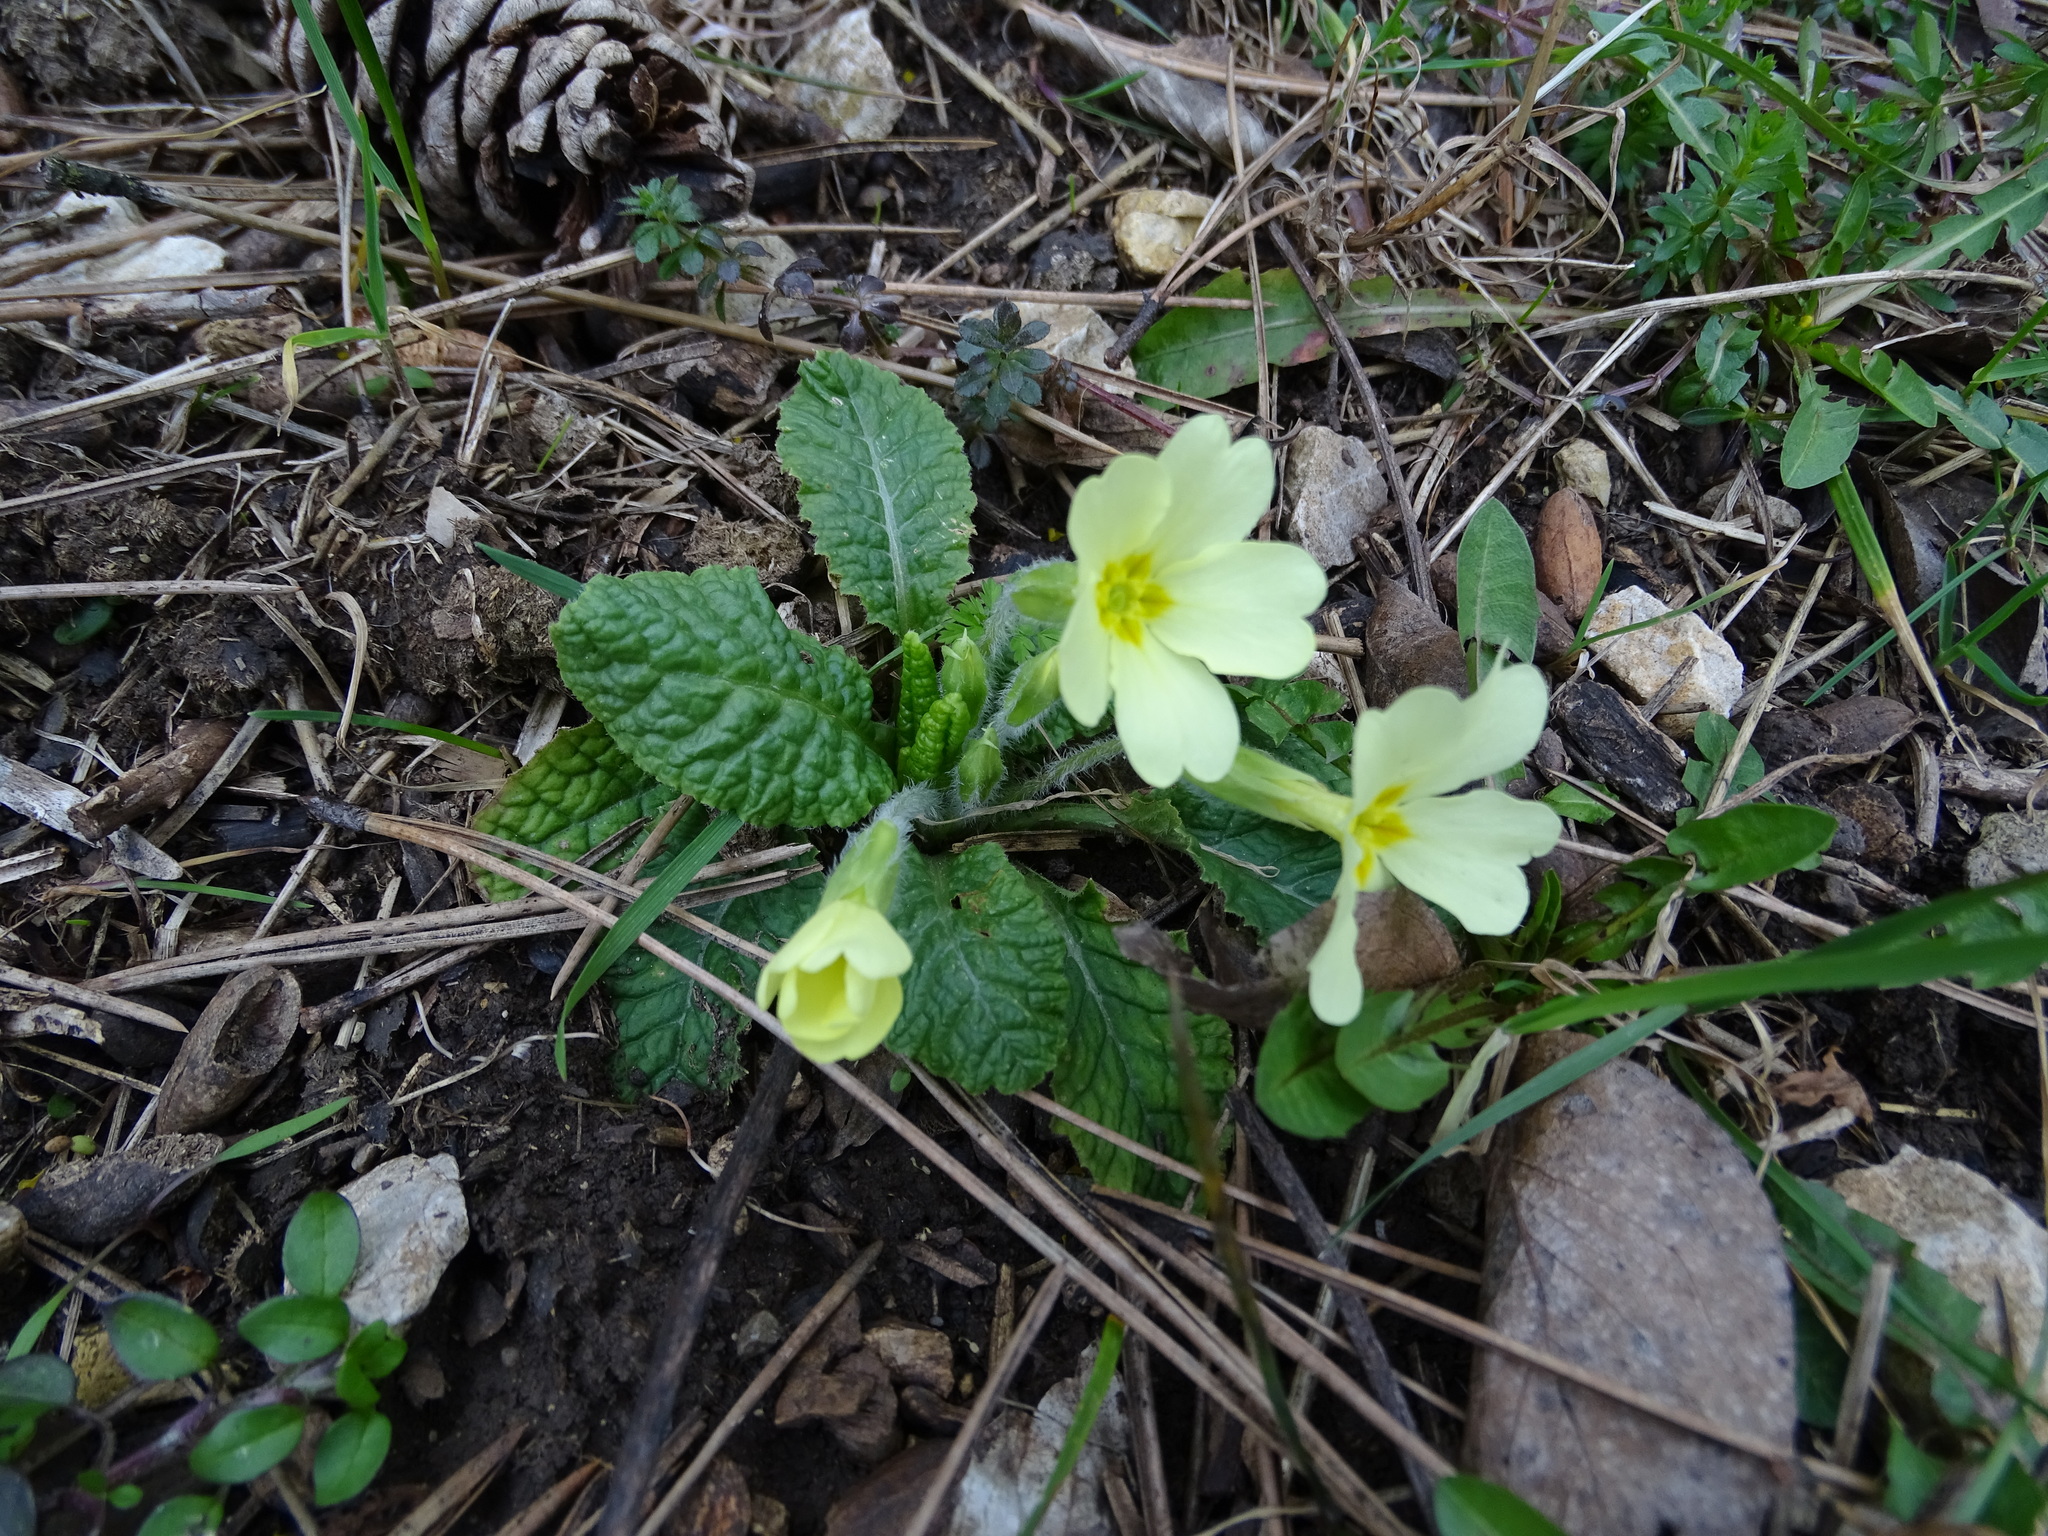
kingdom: Plantae
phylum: Tracheophyta
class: Magnoliopsida
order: Ericales
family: Primulaceae
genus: Primula
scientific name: Primula vulgaris
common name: Primrose
